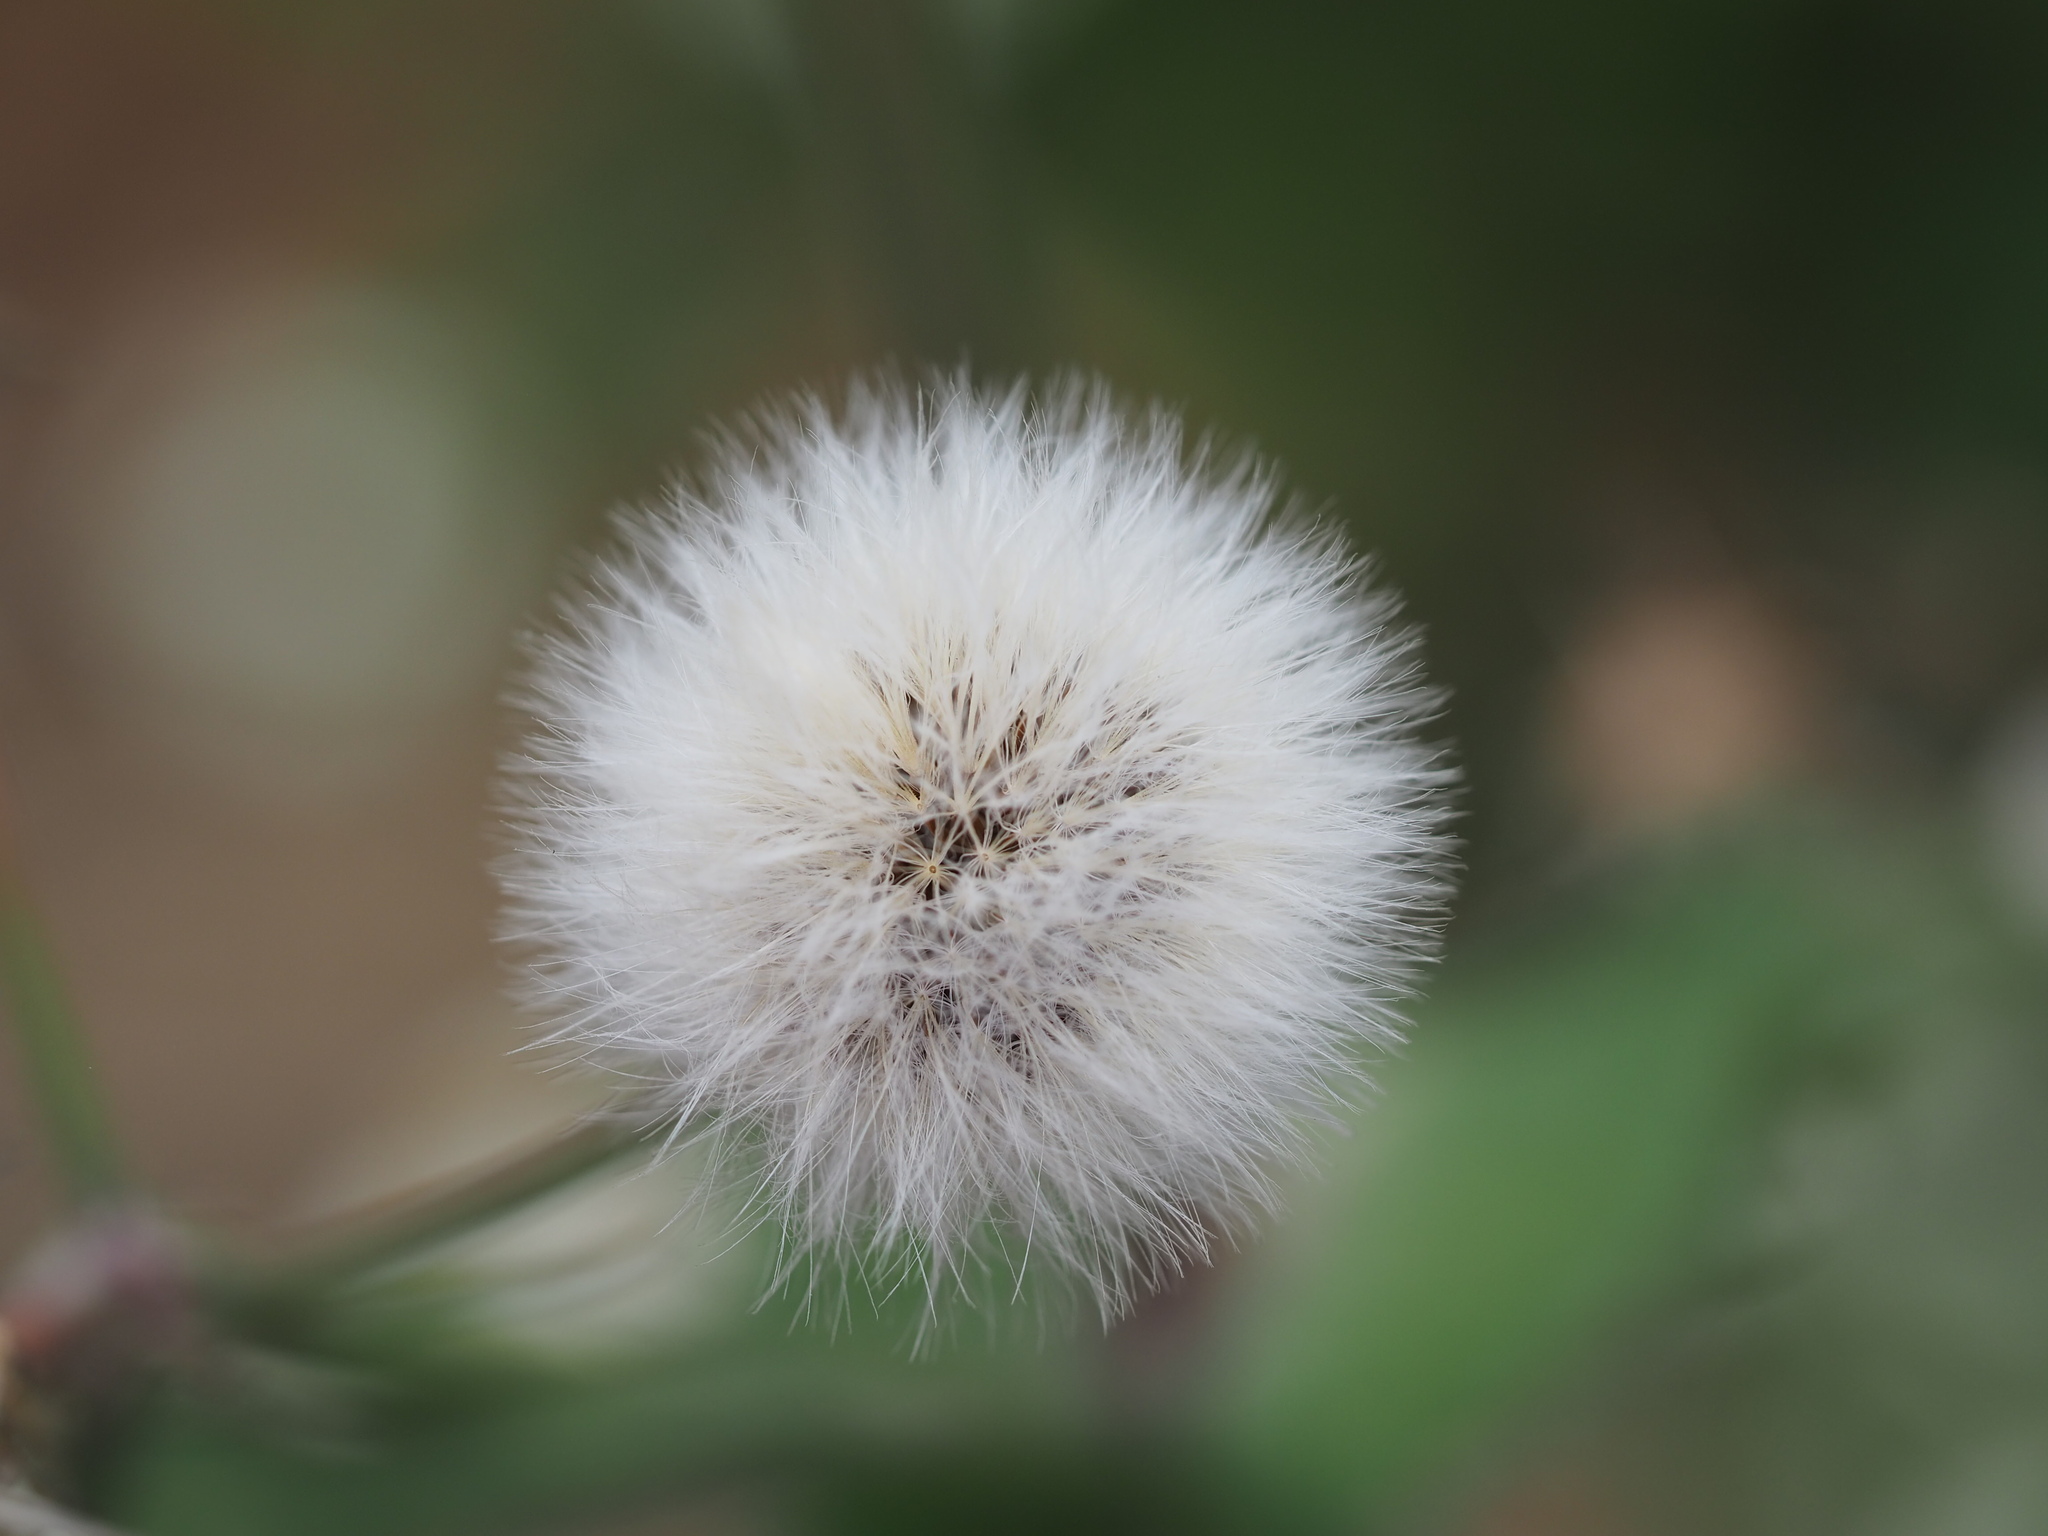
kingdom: Plantae
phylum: Tracheophyta
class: Magnoliopsida
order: Asterales
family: Asteraceae
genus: Sonchus
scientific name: Sonchus oleraceus
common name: Common sowthistle
